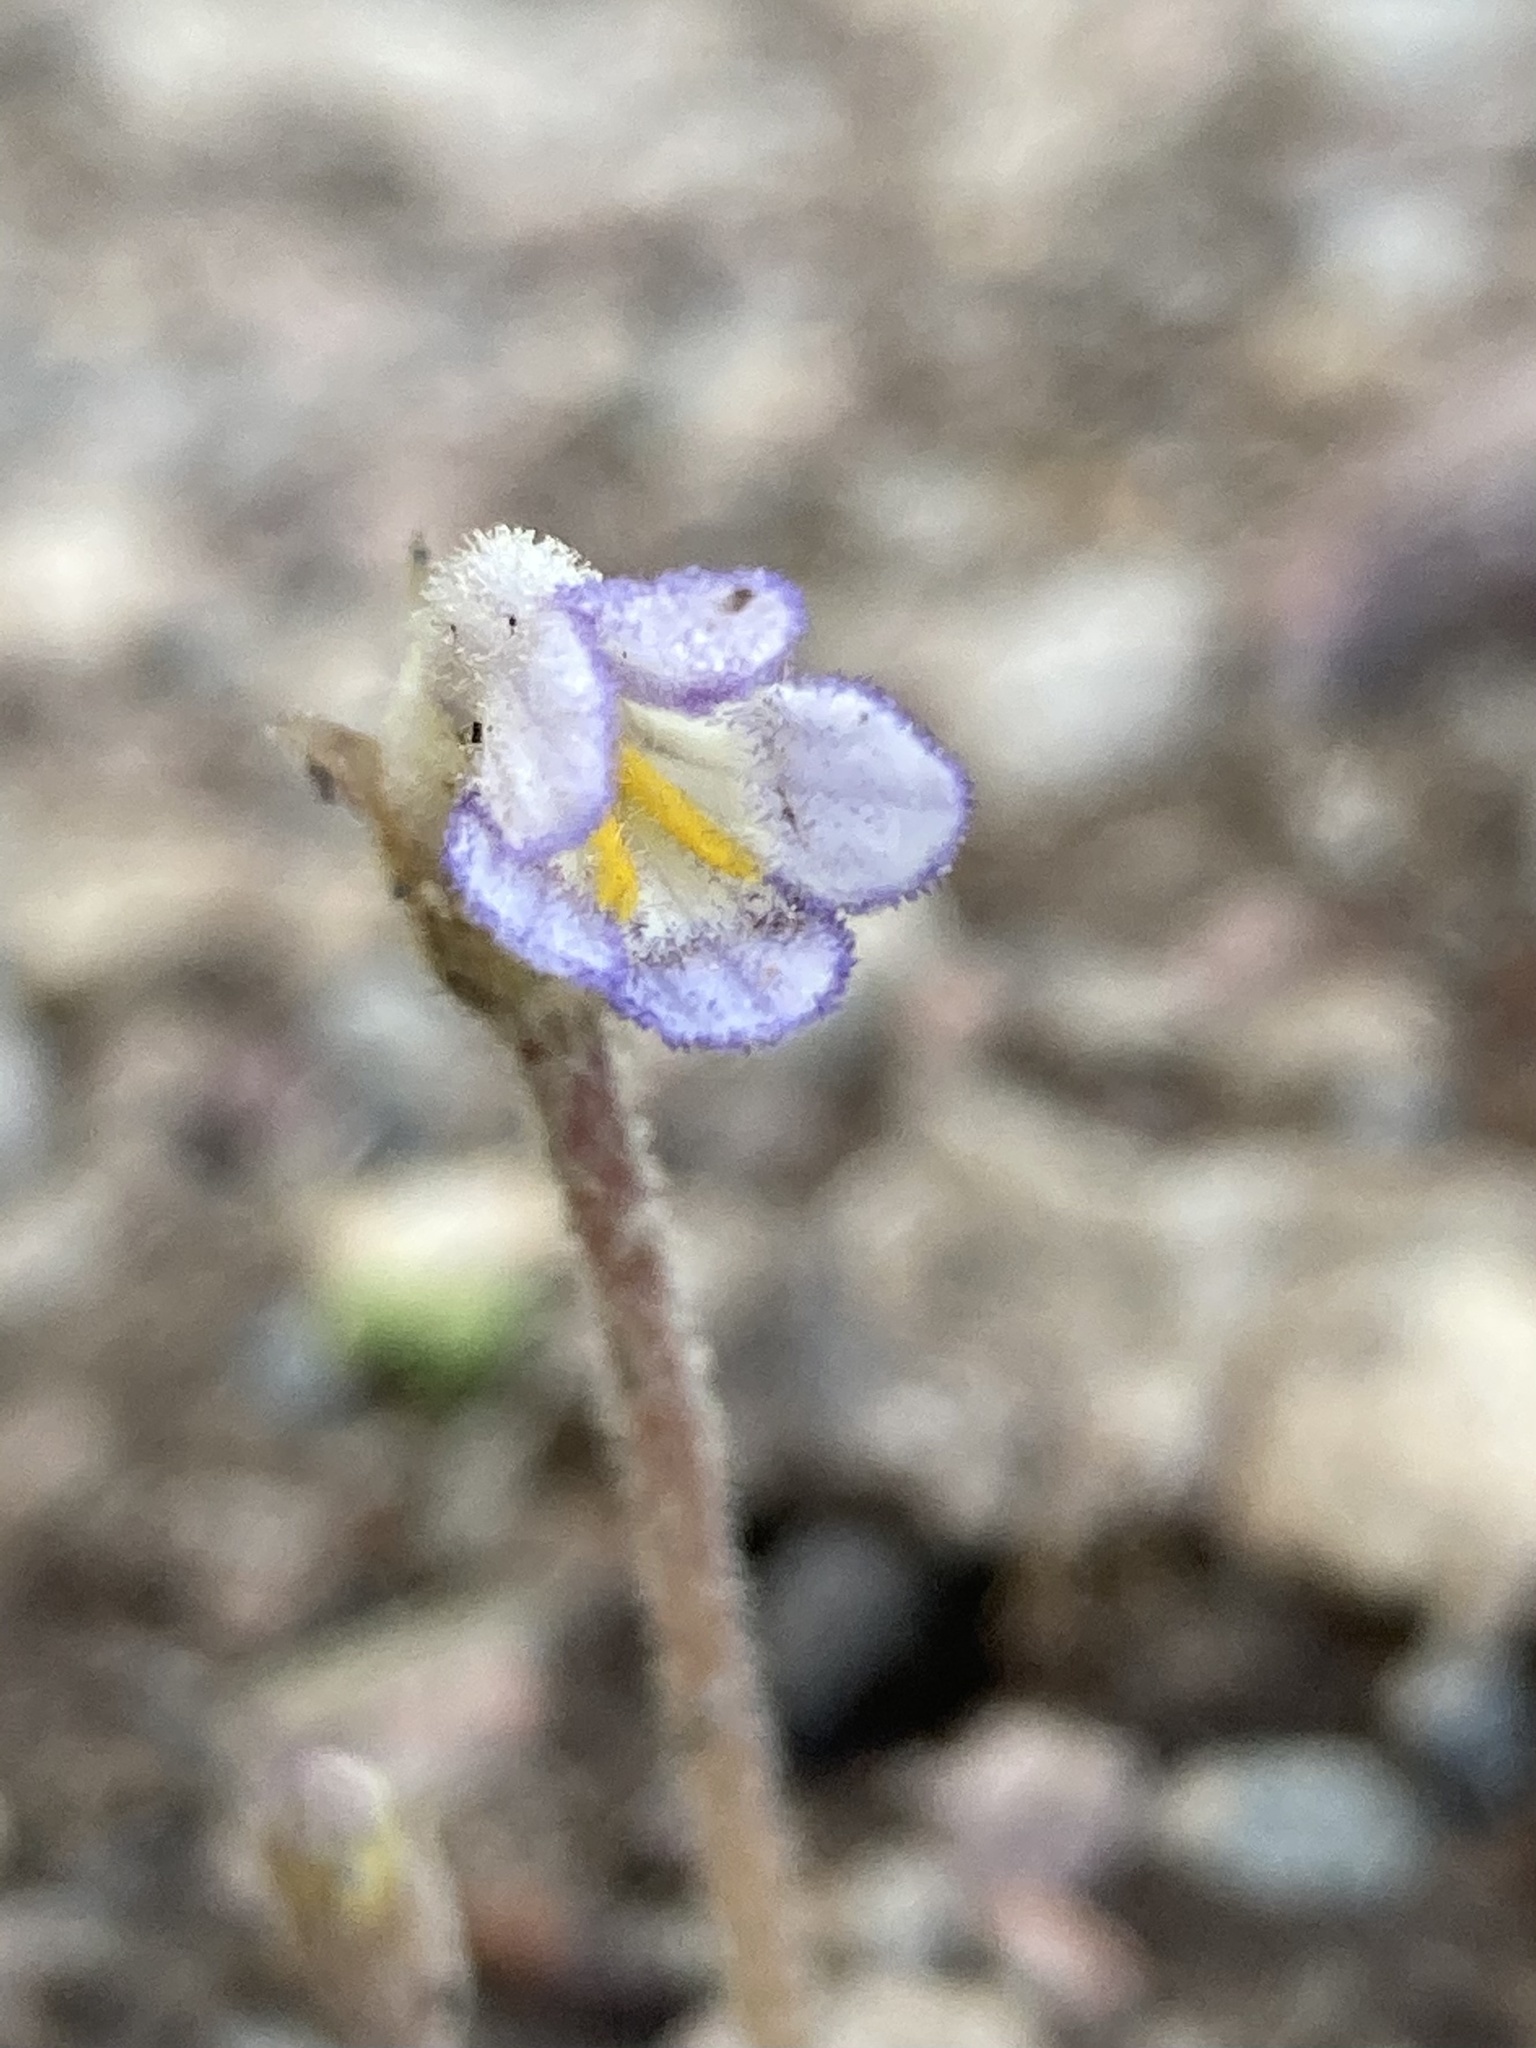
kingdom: Plantae
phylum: Tracheophyta
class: Magnoliopsida
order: Lamiales
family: Orobanchaceae
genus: Aphyllon
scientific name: Aphyllon uniflorum
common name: One-flowered broomrape
